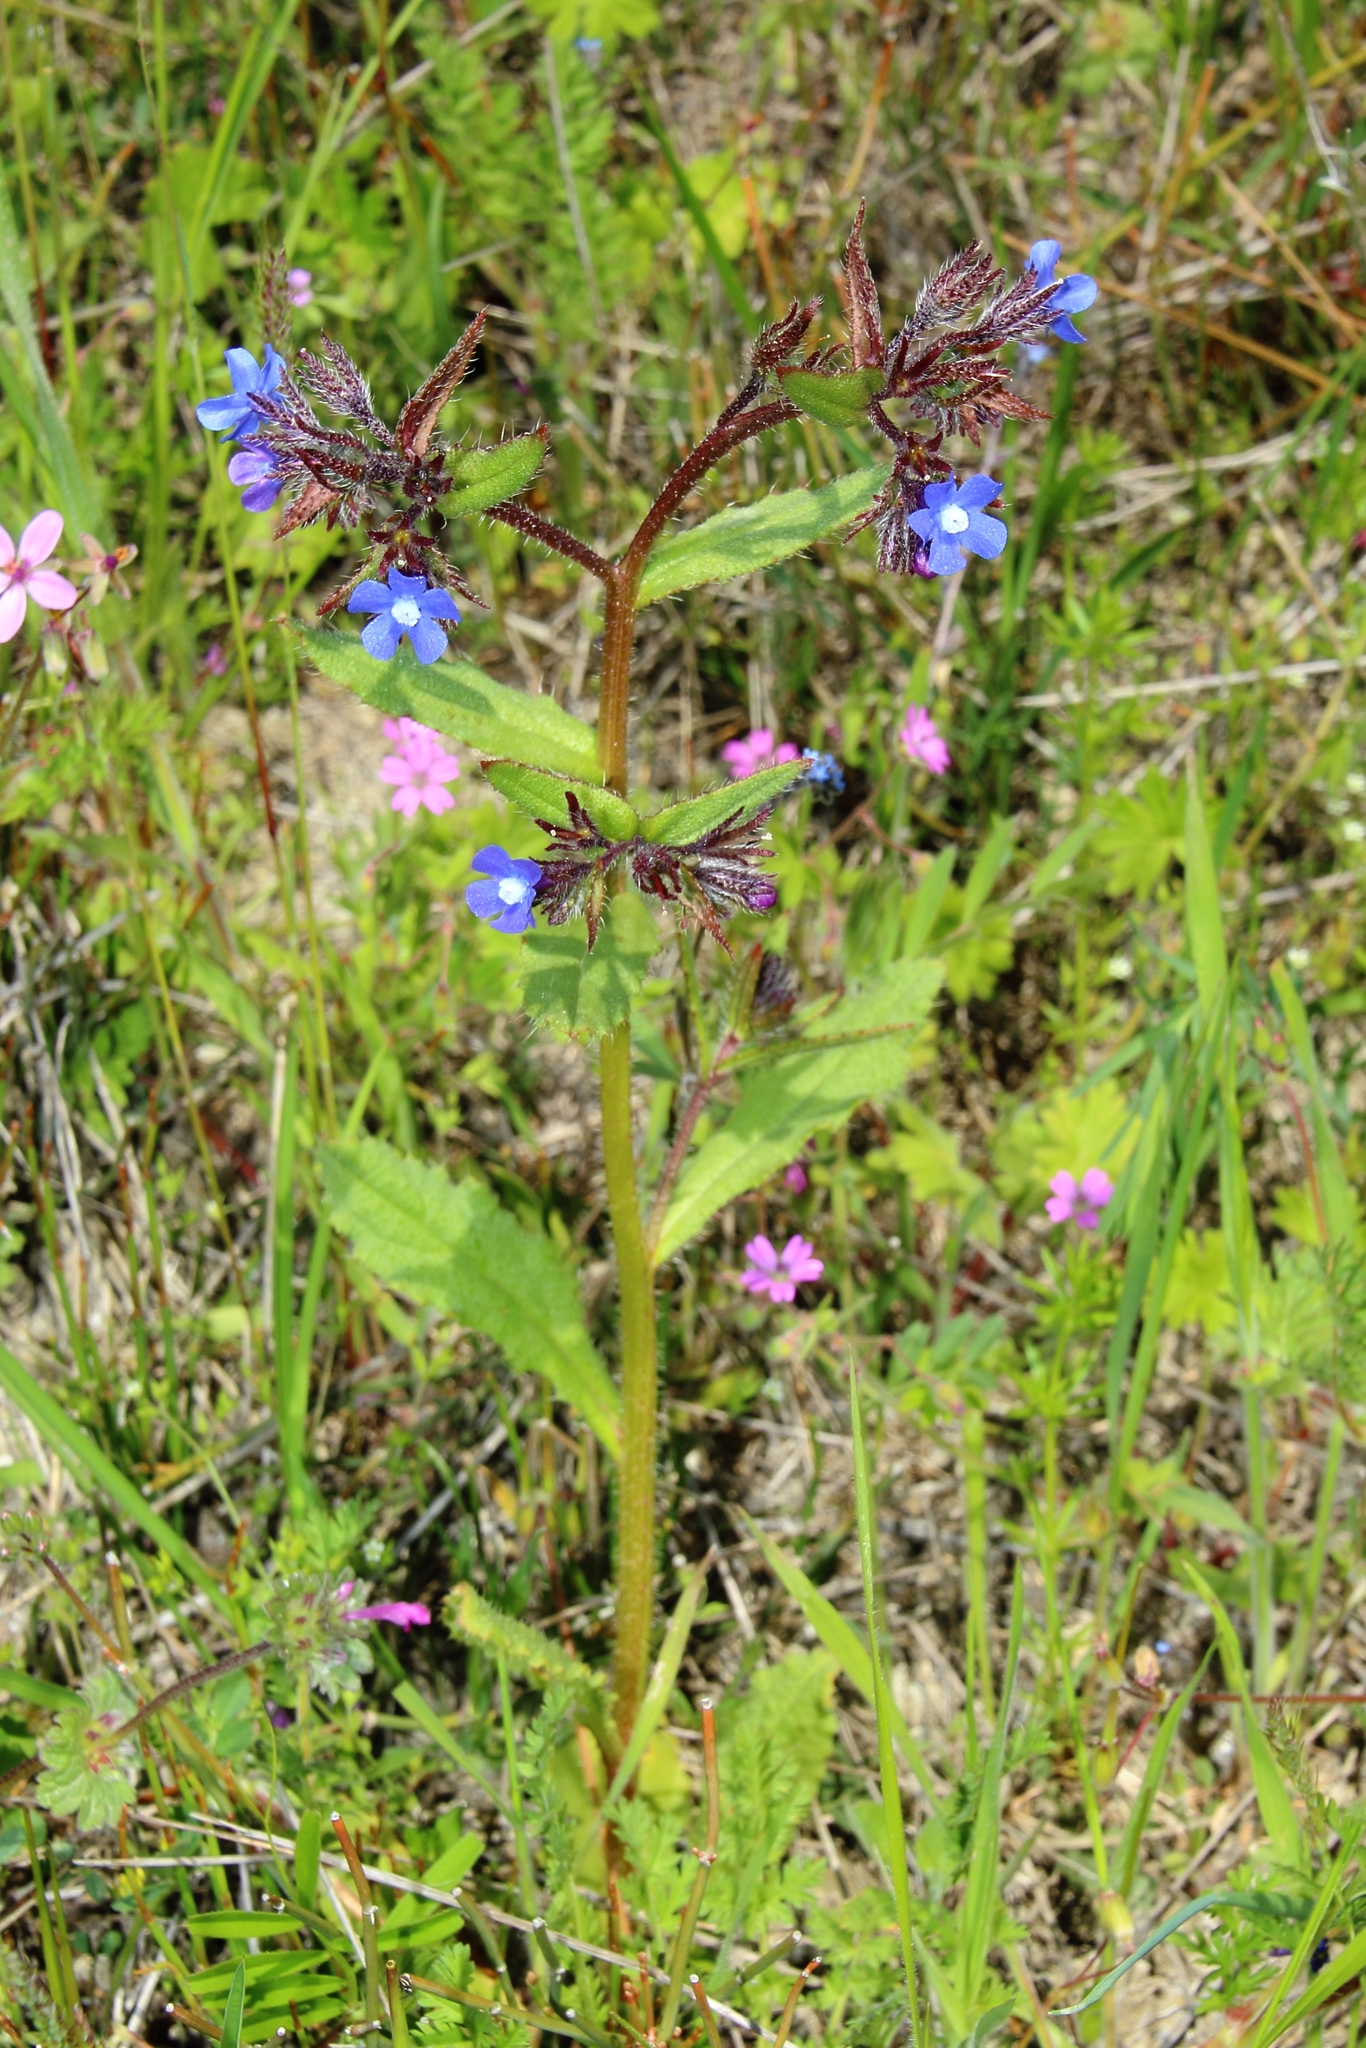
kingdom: Plantae
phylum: Tracheophyta
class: Magnoliopsida
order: Boraginales
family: Boraginaceae
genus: Anchusa
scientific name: Anchusa pusilla
